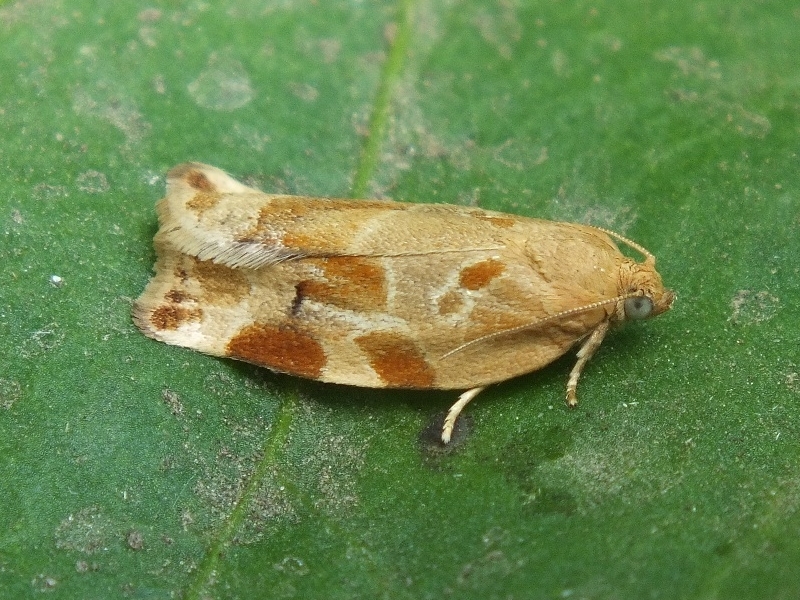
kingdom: Animalia
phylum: Arthropoda
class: Insecta
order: Lepidoptera
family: Tortricidae
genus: Archips
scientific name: Archips xylosteana
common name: Variegated golden tortrix
